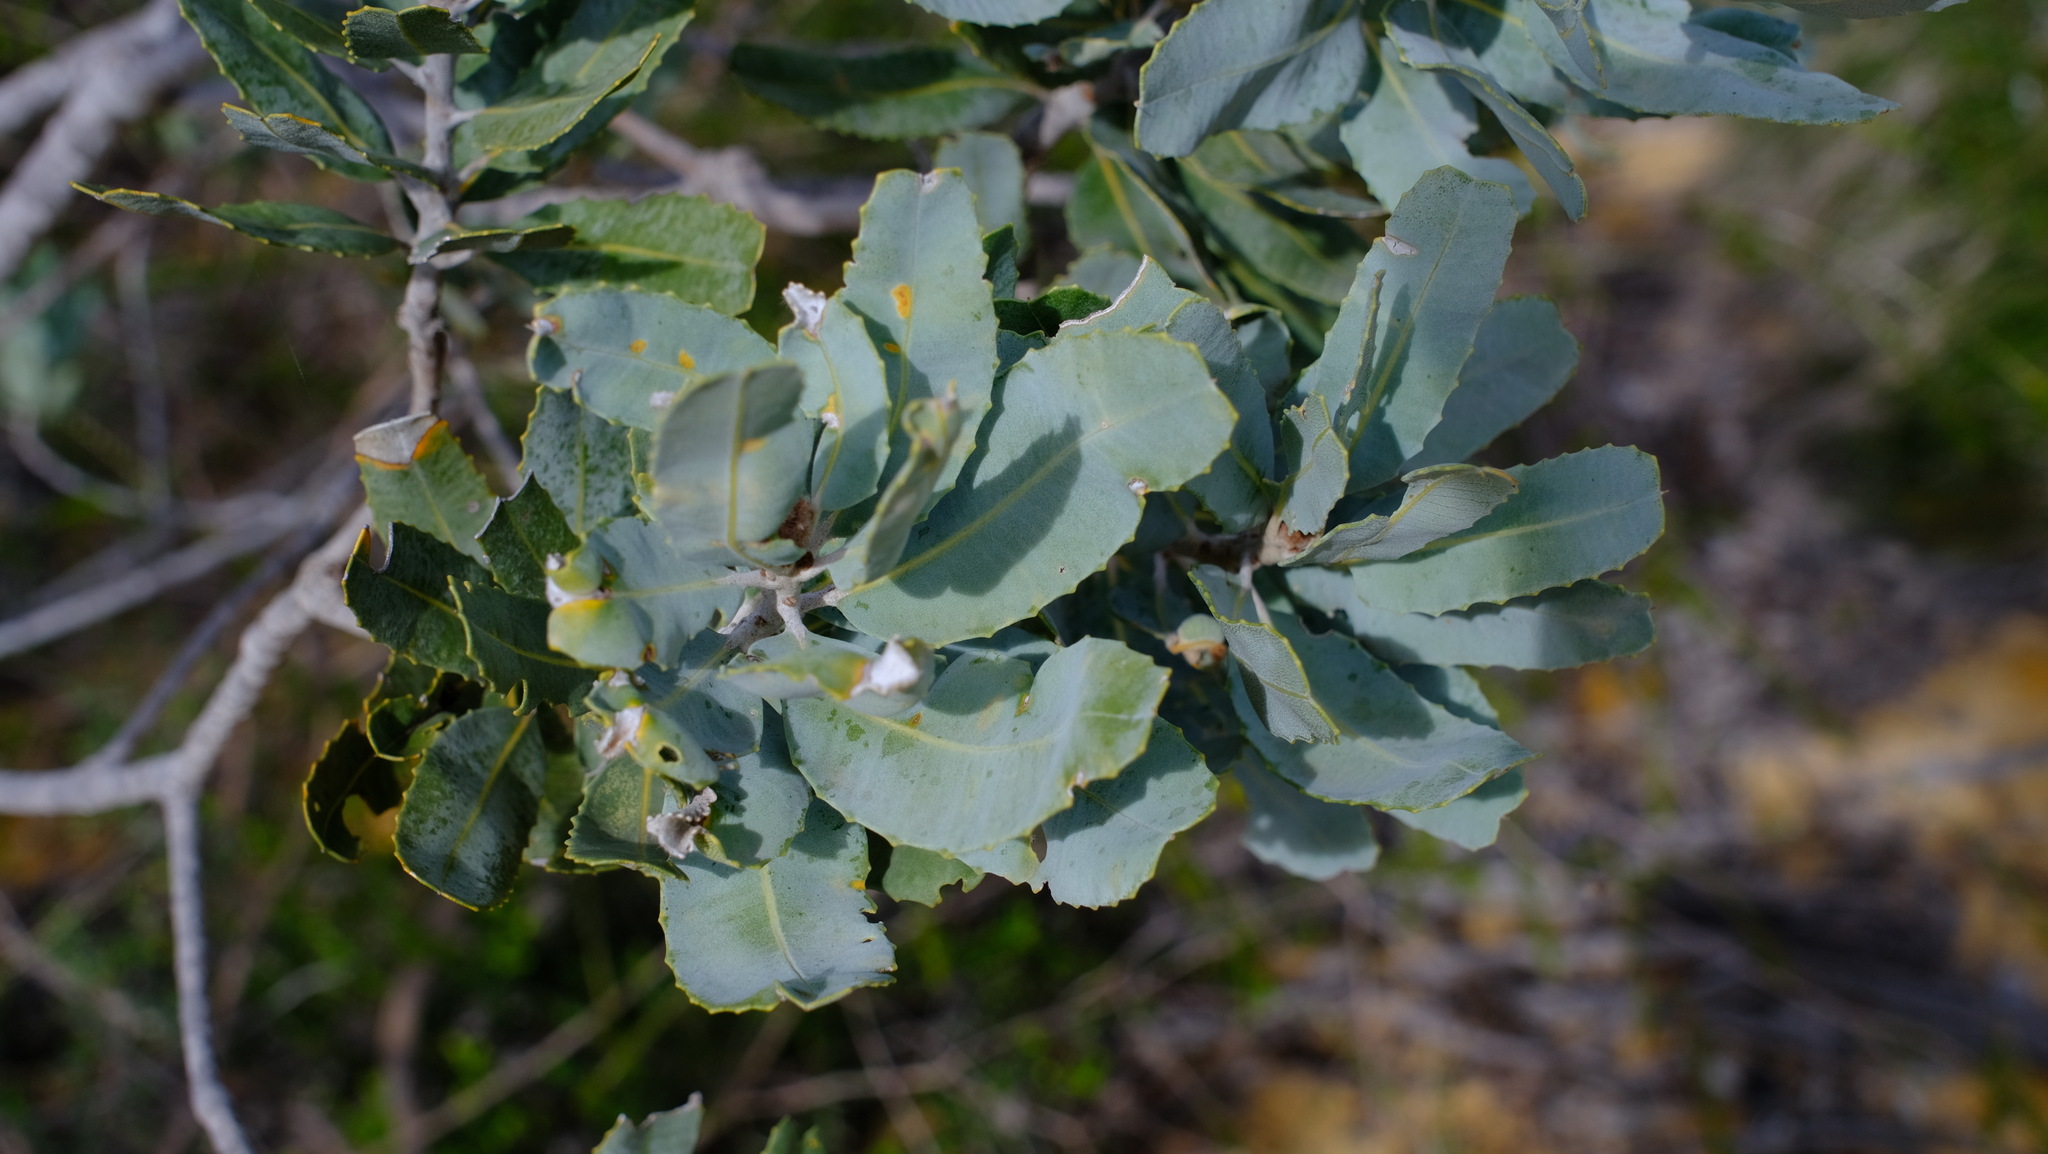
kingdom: Plantae
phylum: Tracheophyta
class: Magnoliopsida
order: Proteales
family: Proteaceae
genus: Banksia
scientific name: Banksia sceptrum
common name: Sceptre banksia
